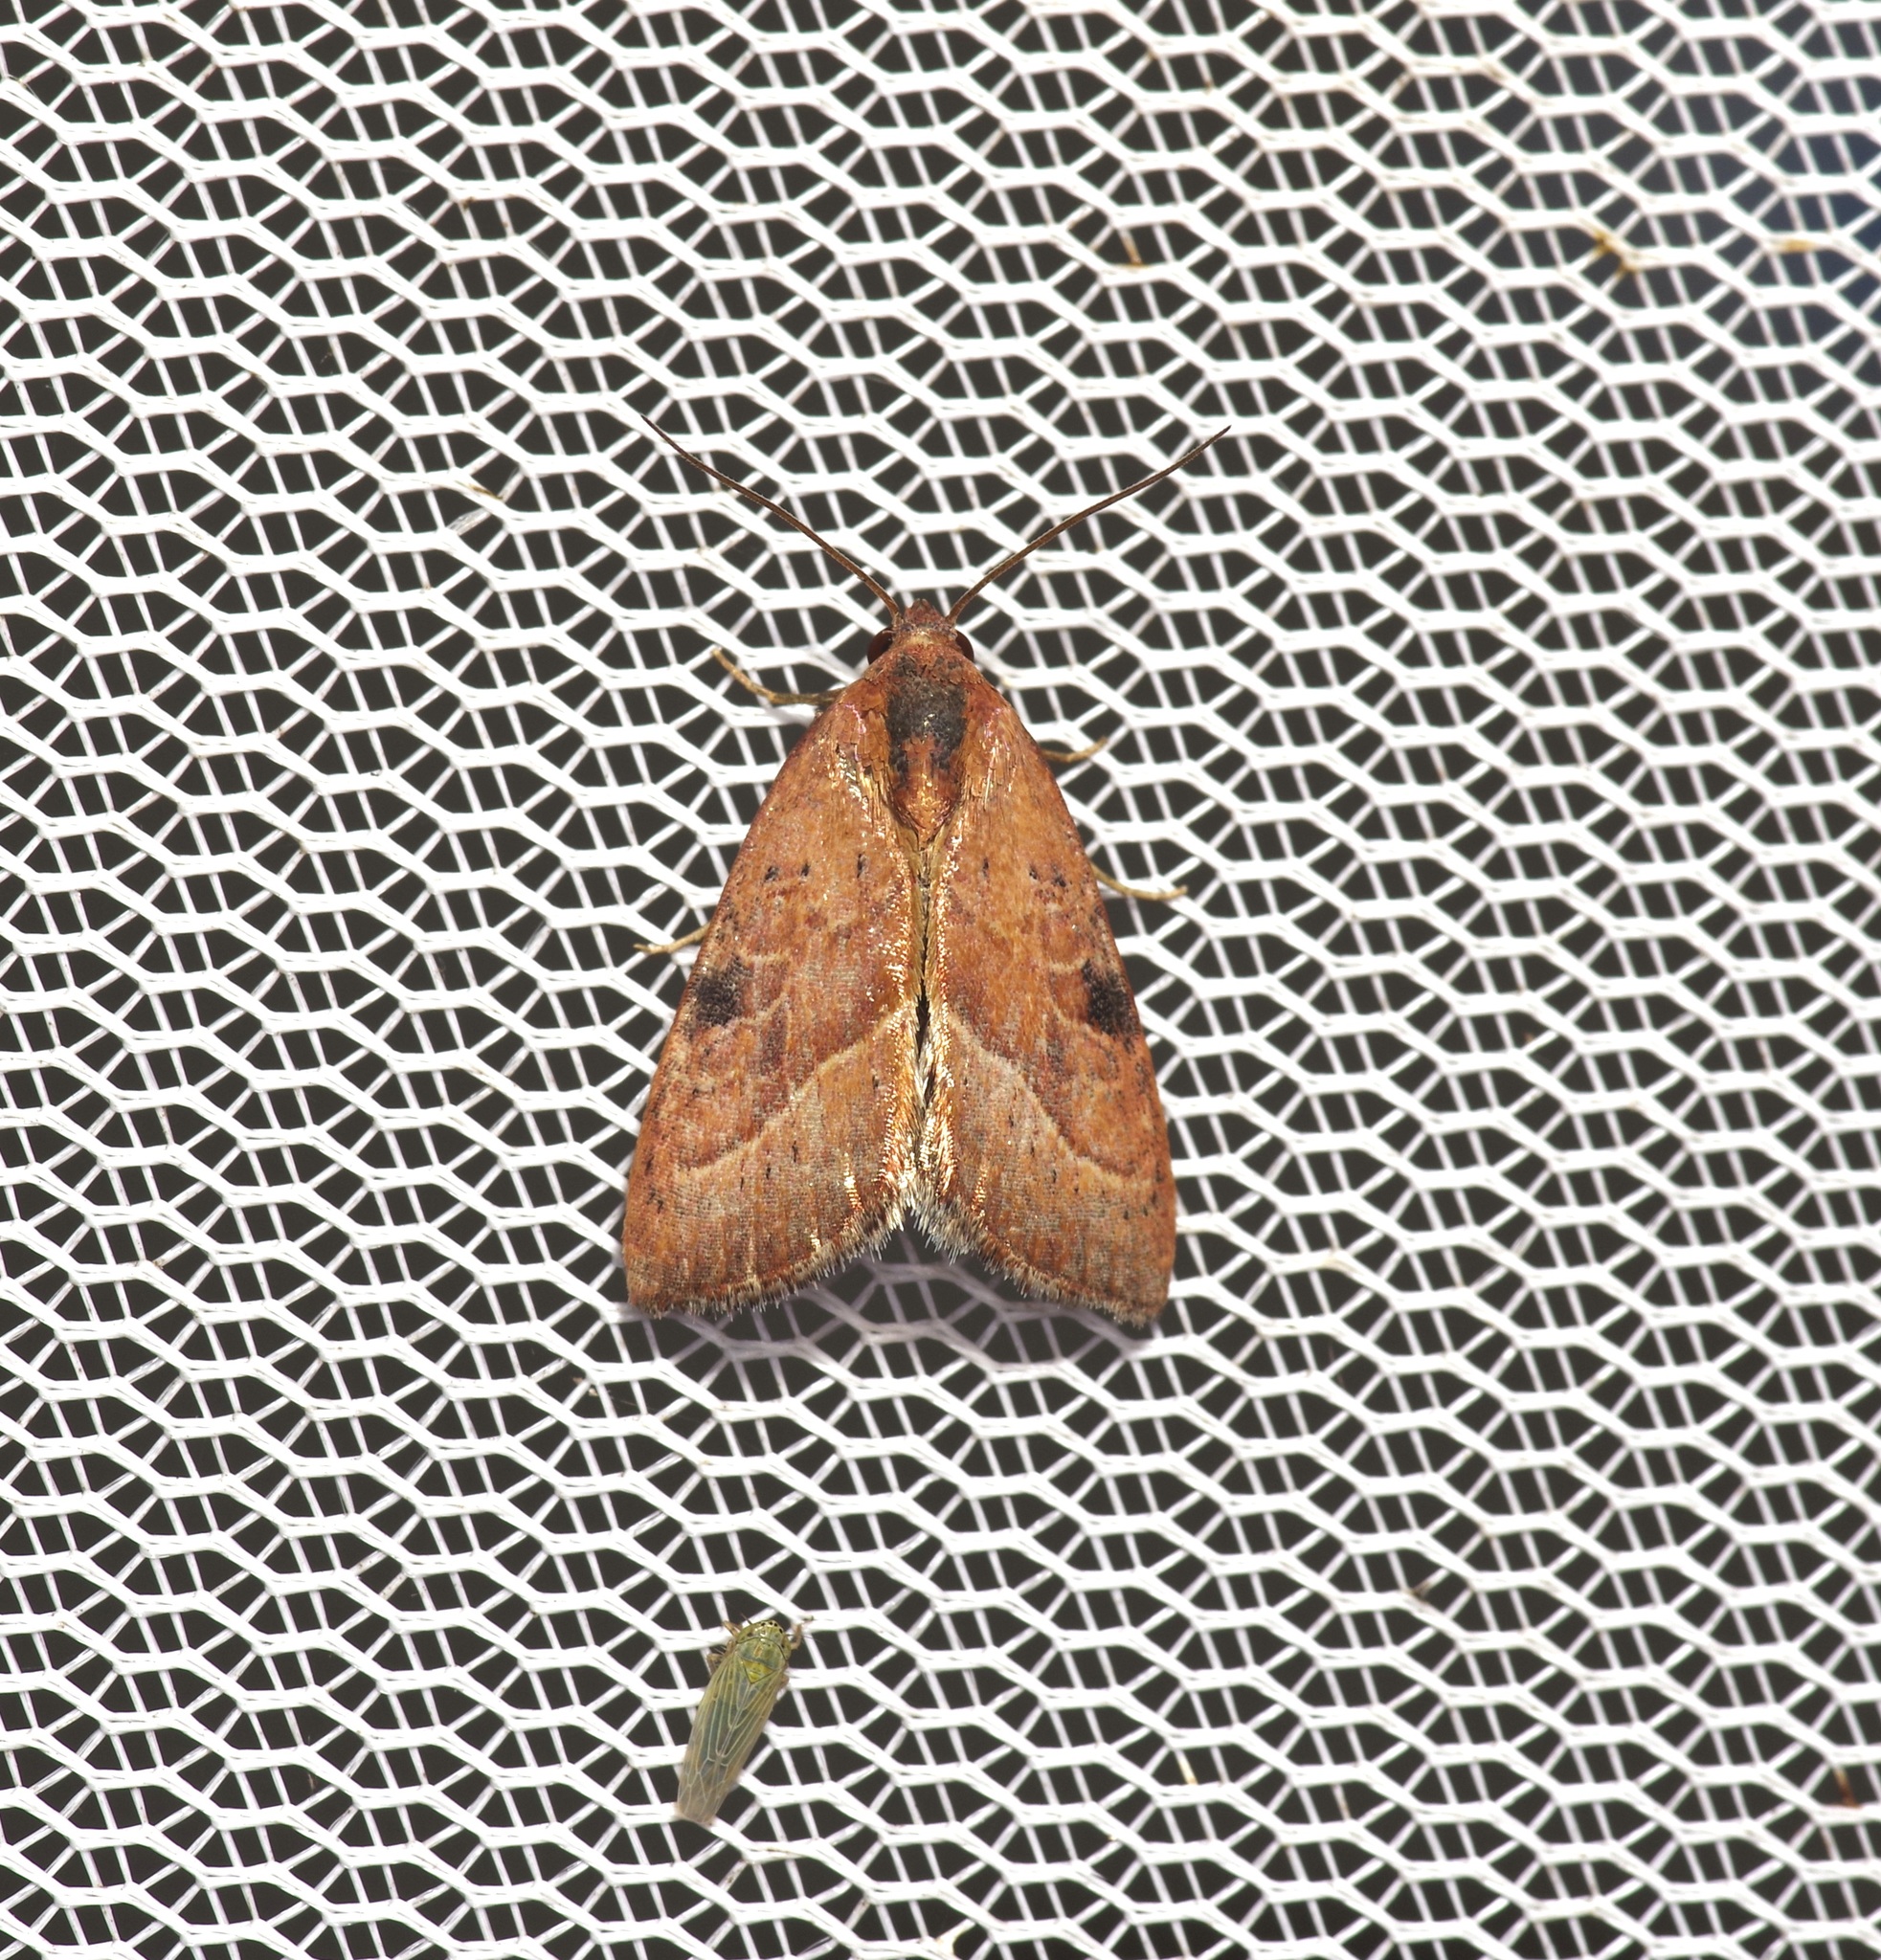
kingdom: Animalia
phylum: Arthropoda
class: Insecta
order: Lepidoptera
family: Noctuidae
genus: Galgula
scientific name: Galgula partita
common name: Wedgeling
